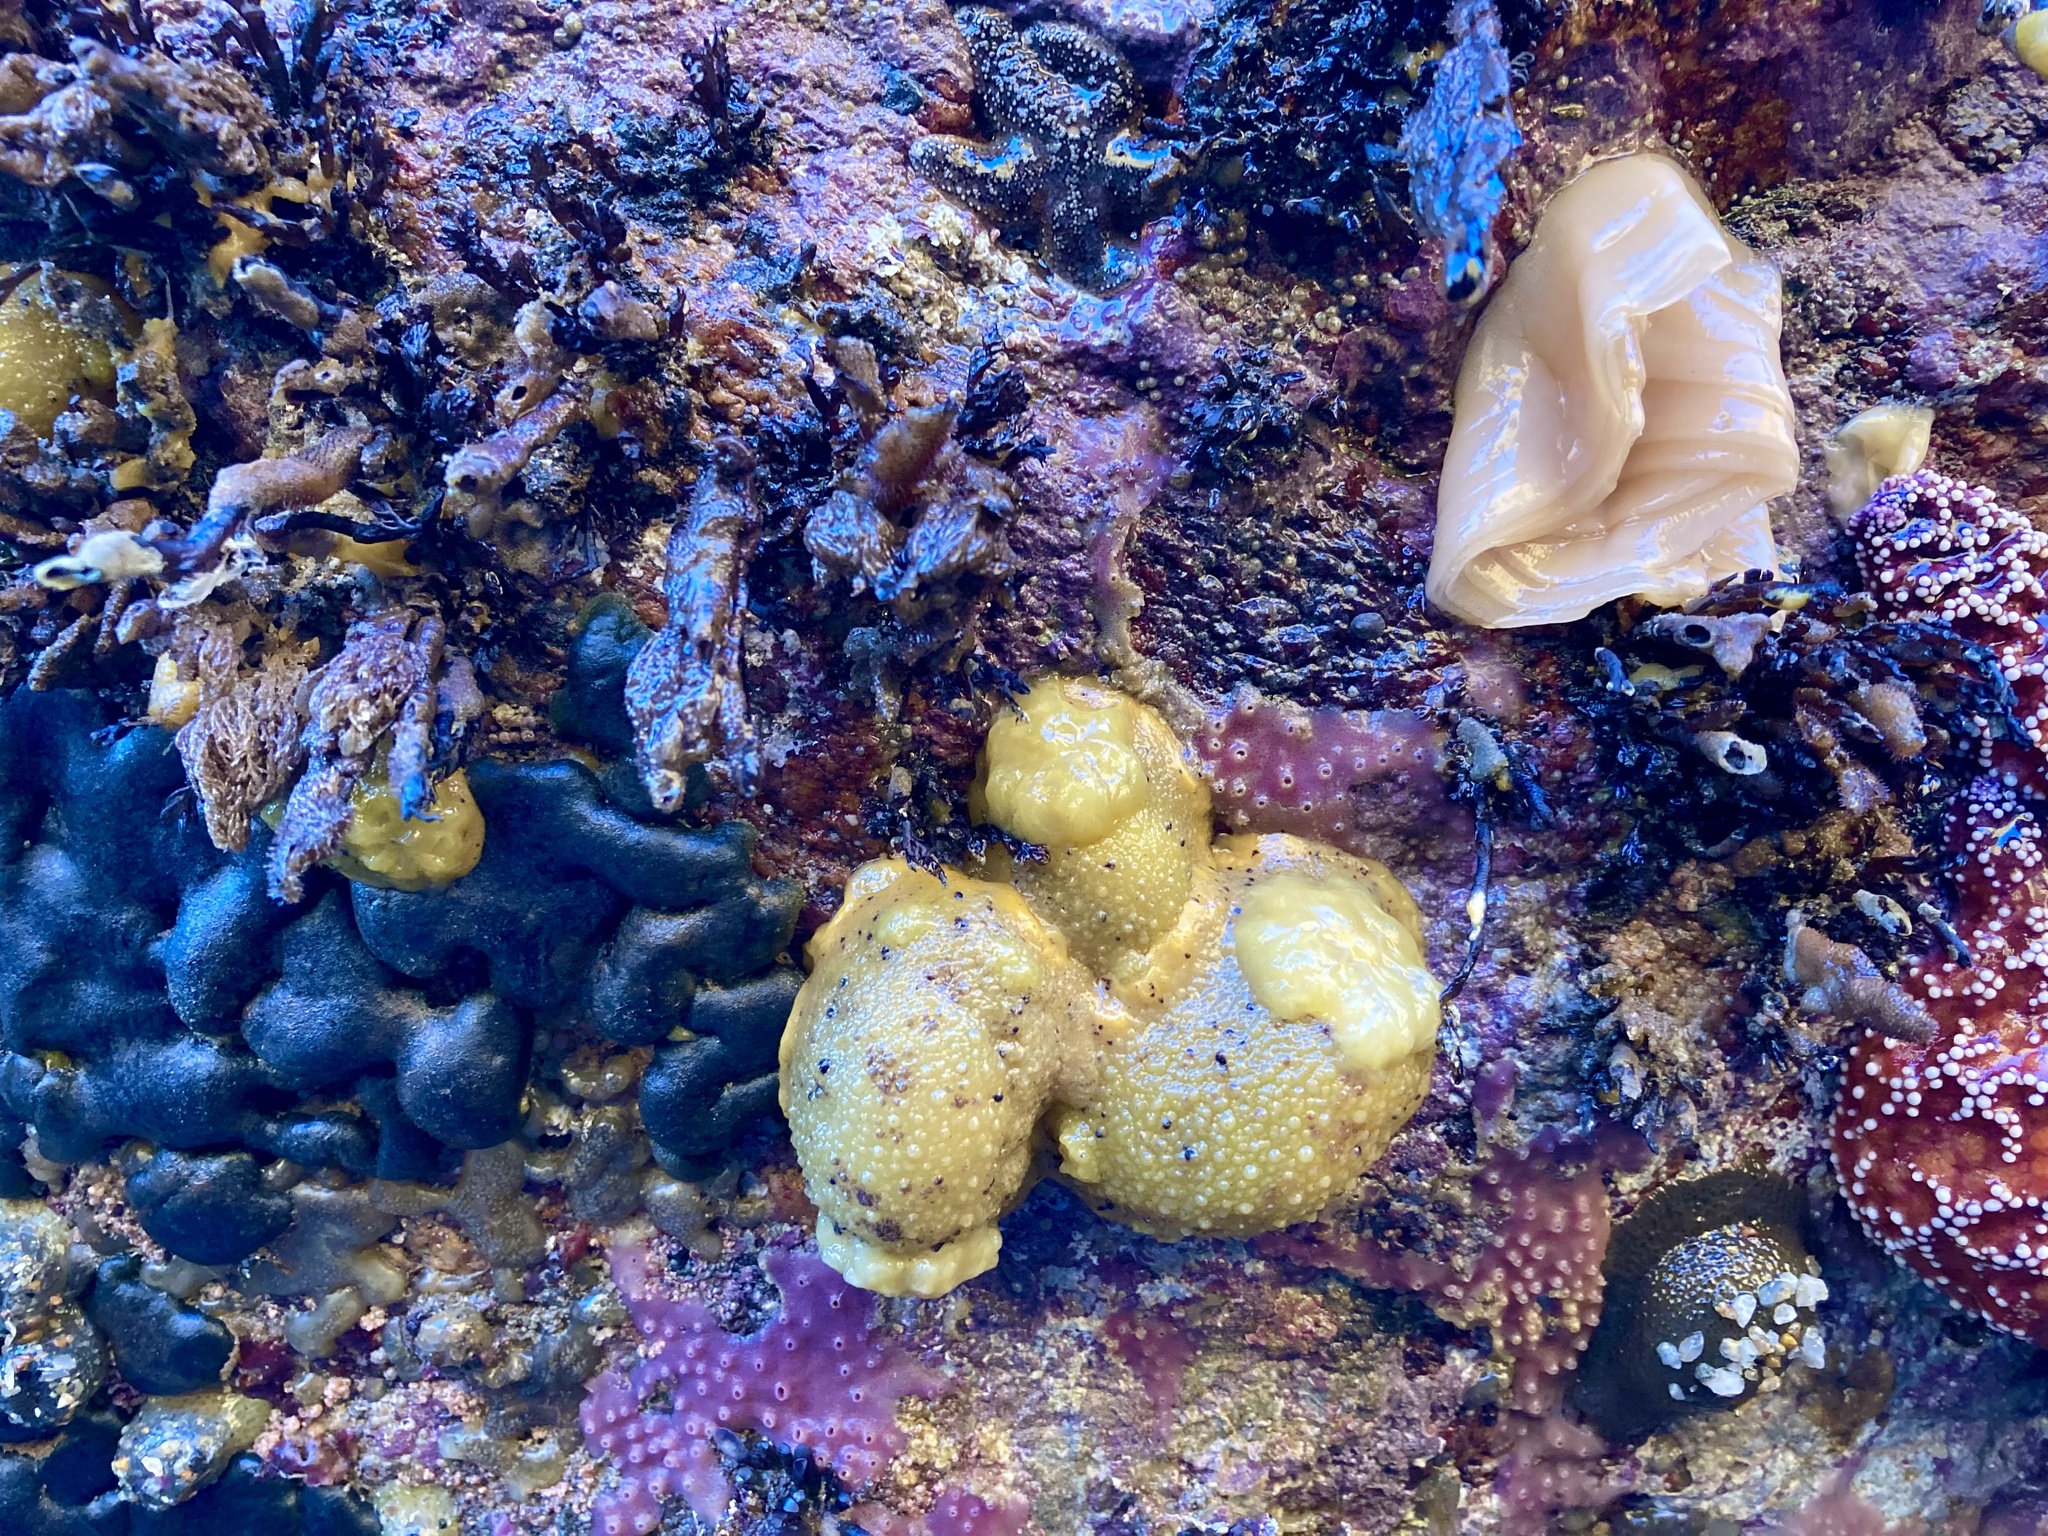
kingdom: Animalia
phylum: Mollusca
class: Gastropoda
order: Nudibranchia
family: Dorididae
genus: Doris
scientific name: Doris montereyensis
